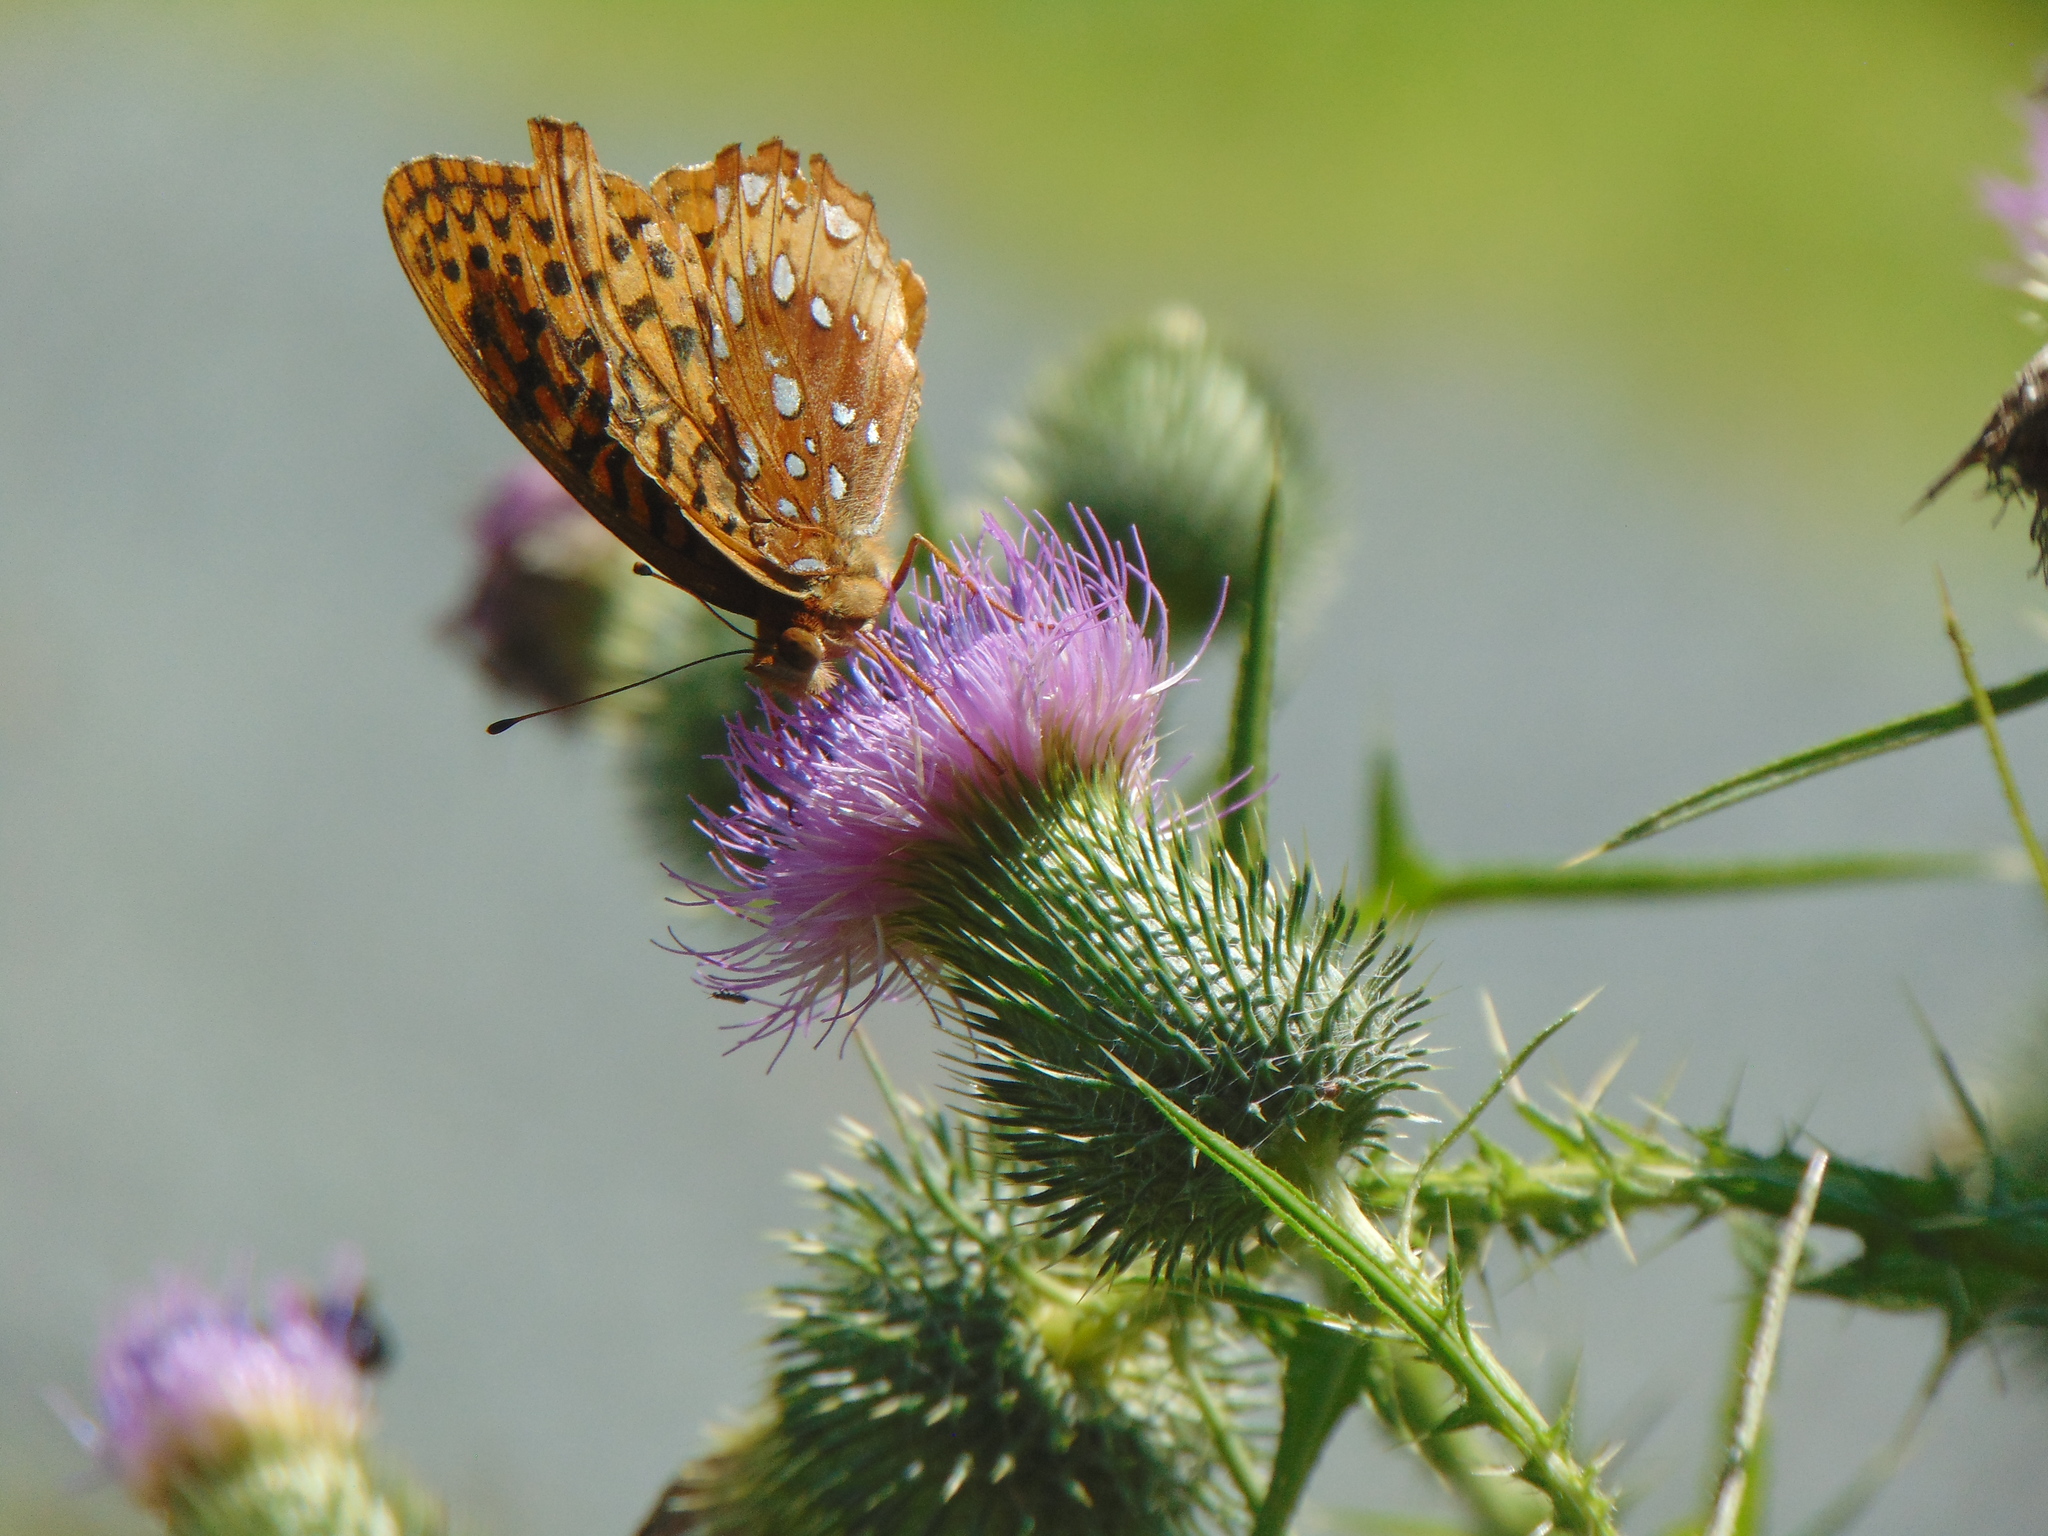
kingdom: Animalia
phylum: Arthropoda
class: Insecta
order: Lepidoptera
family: Nymphalidae
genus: Speyeria
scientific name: Speyeria cybele
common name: Great spangled fritillary
